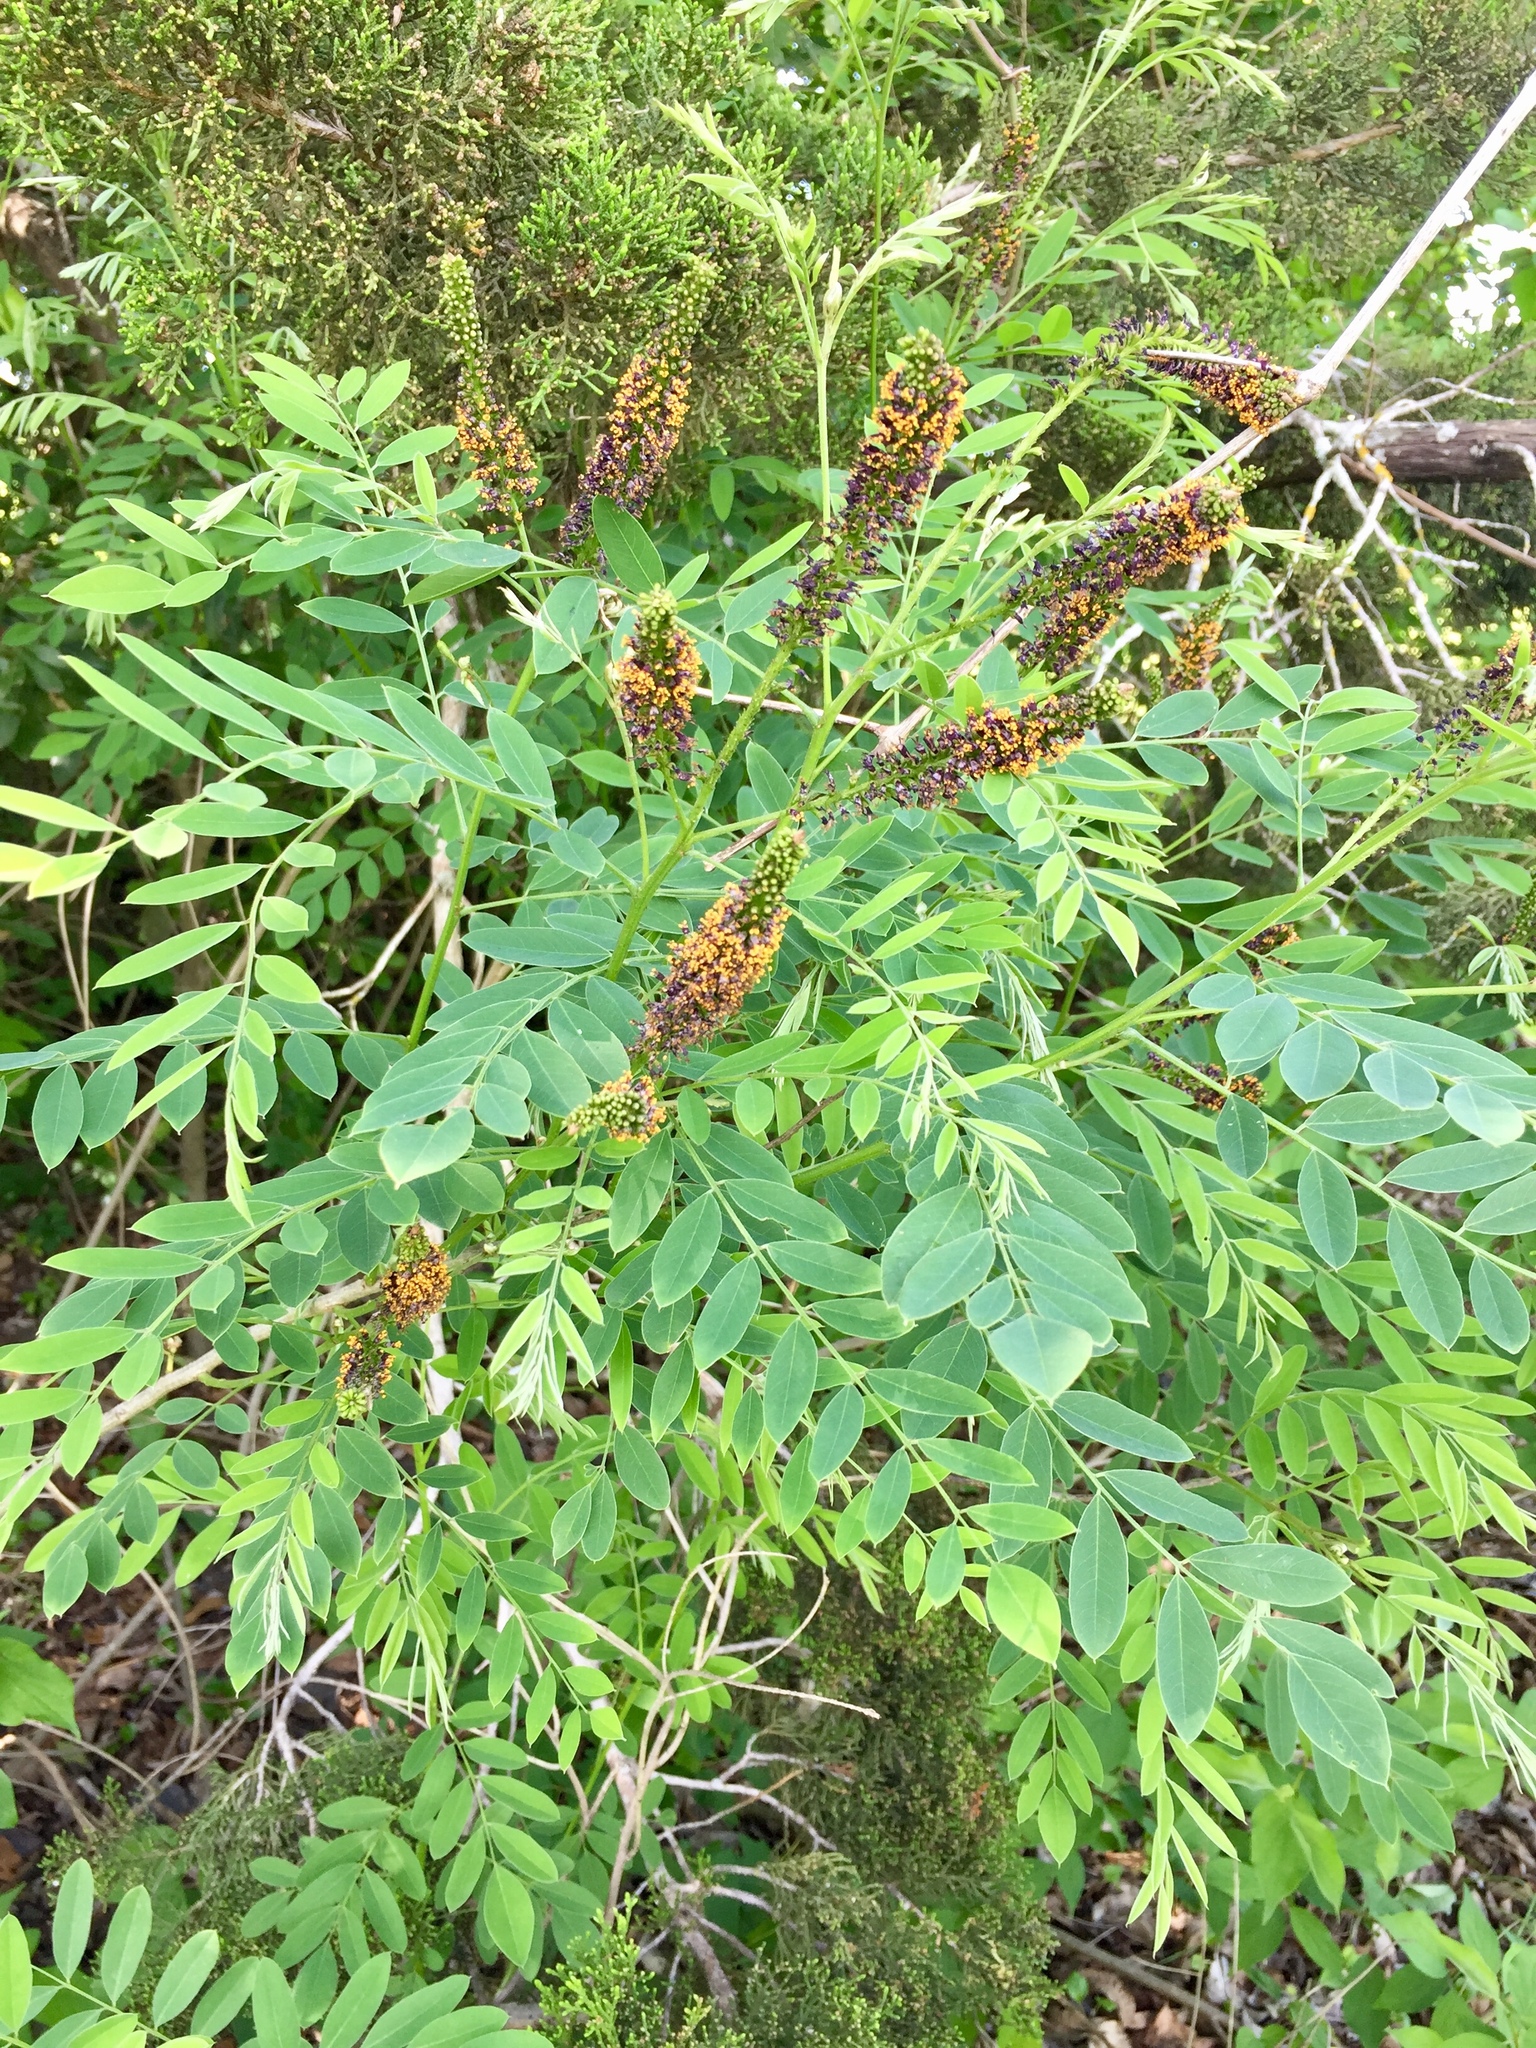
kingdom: Plantae
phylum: Tracheophyta
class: Magnoliopsida
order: Fabales
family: Fabaceae
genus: Amorpha
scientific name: Amorpha fruticosa
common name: False indigo
